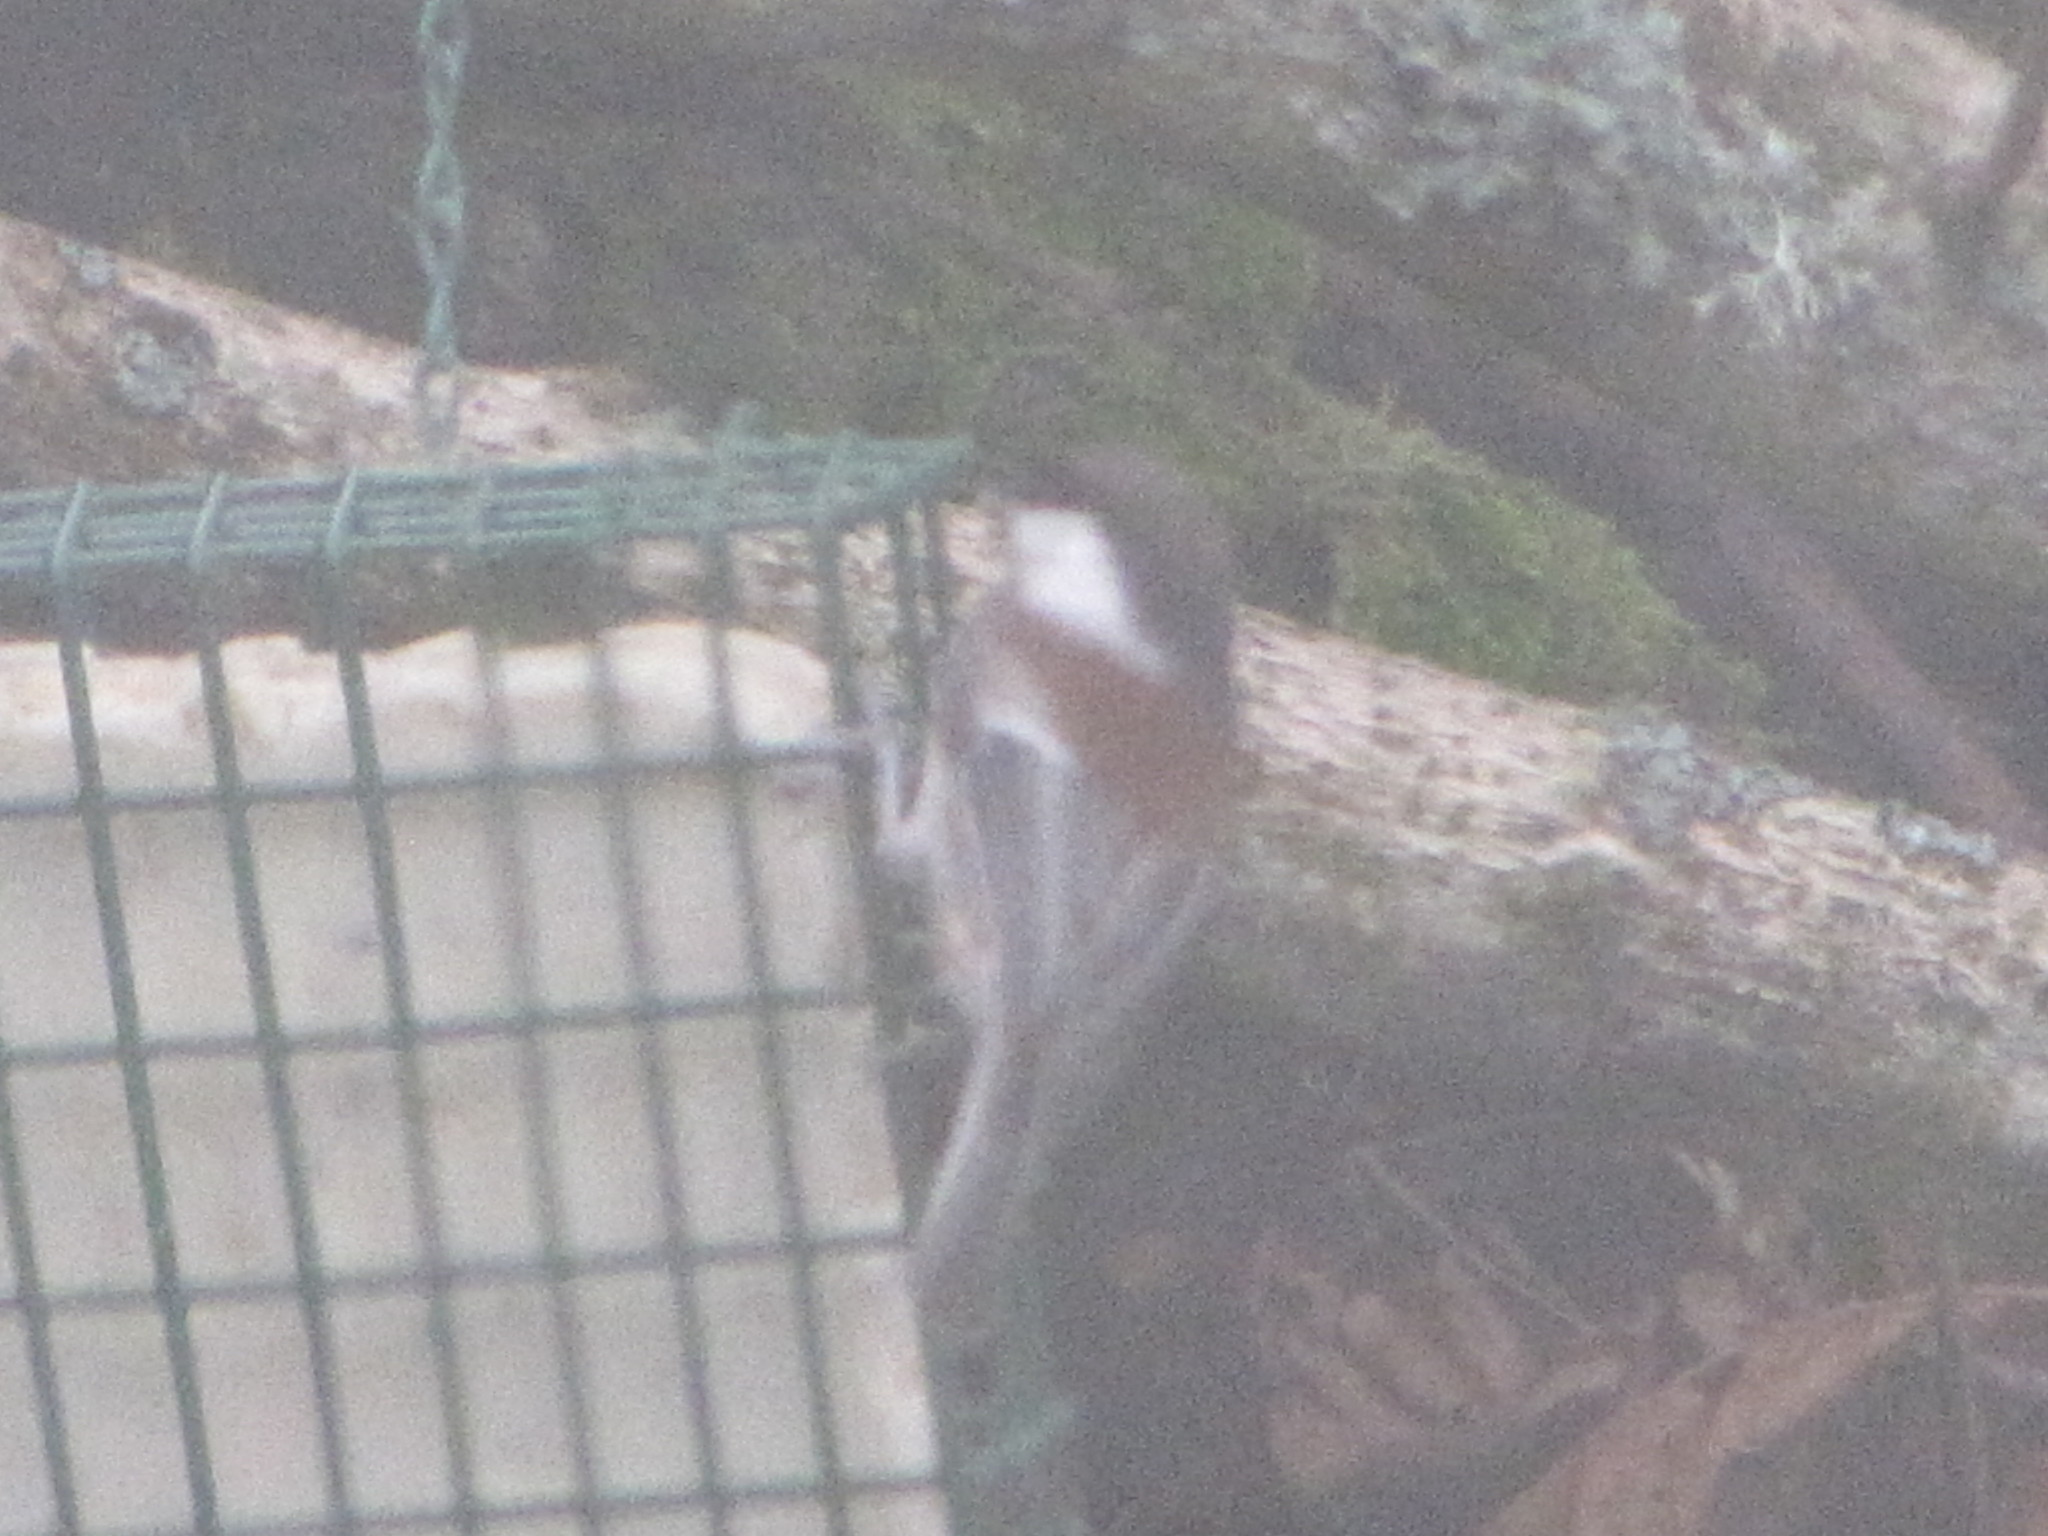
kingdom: Animalia
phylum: Chordata
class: Aves
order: Passeriformes
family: Paridae
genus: Poecile
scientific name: Poecile rufescens
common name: Chestnut-backed chickadee
